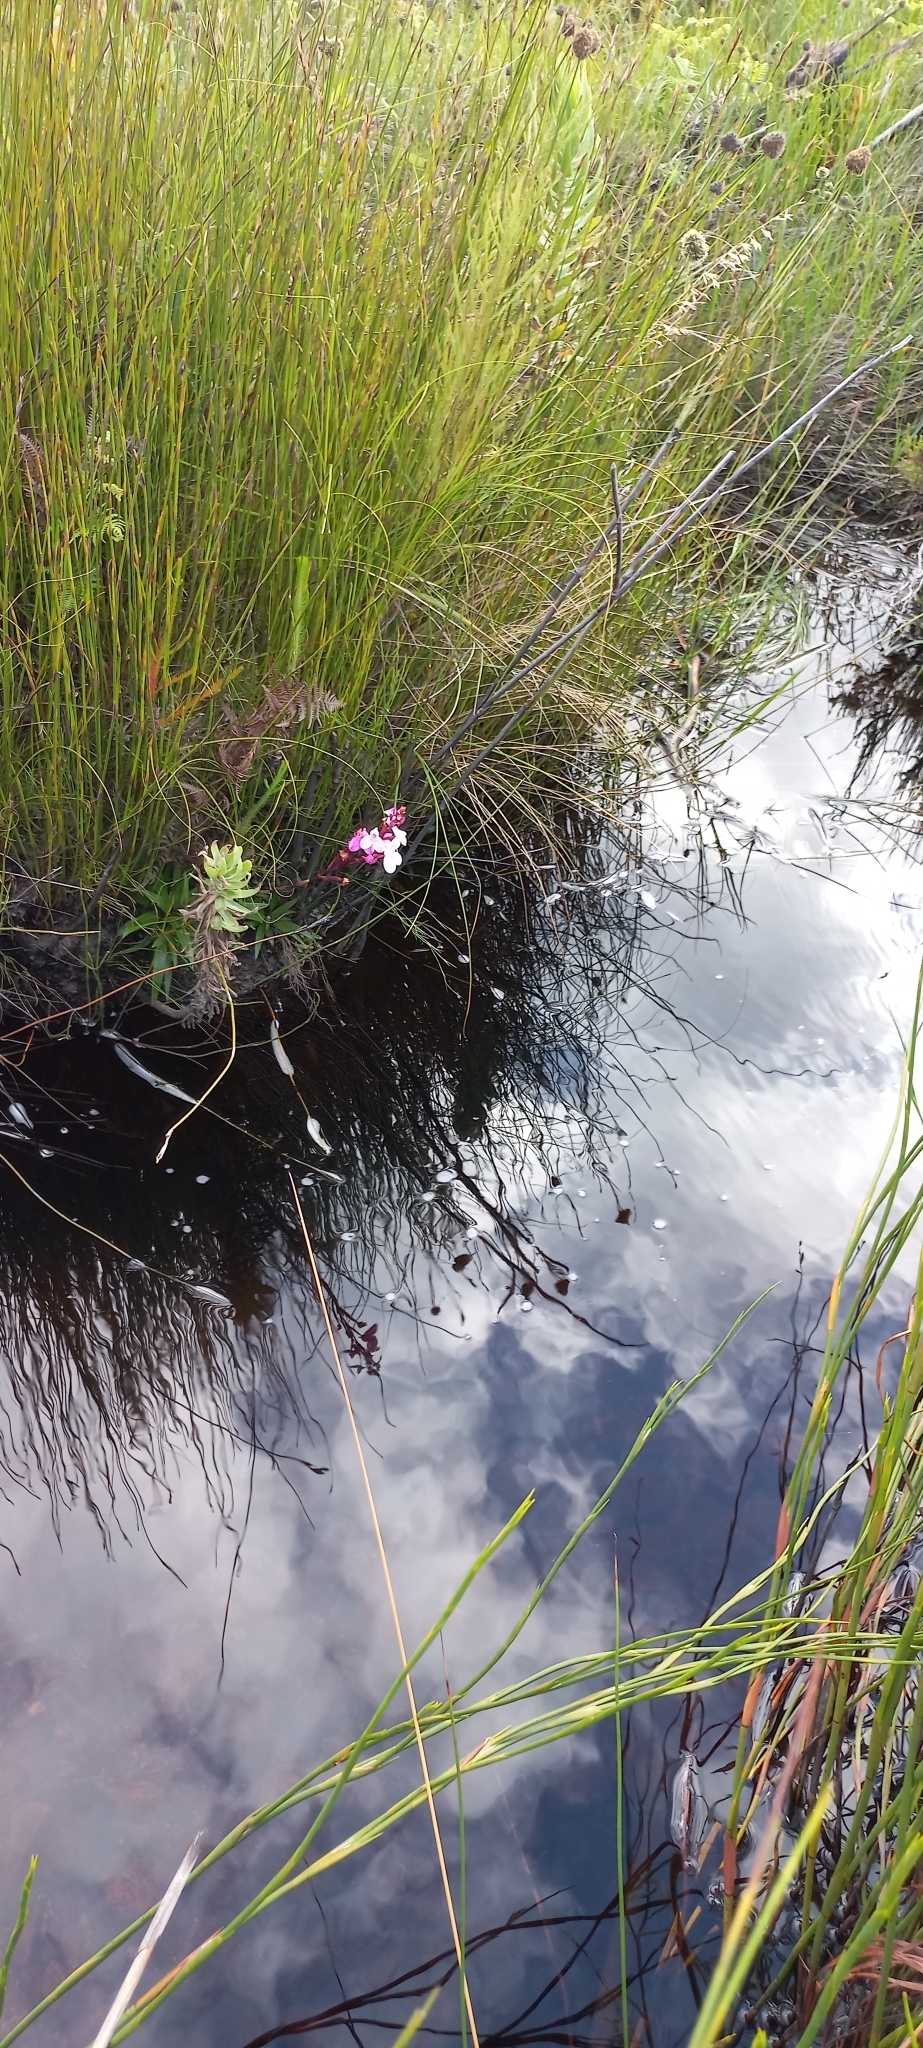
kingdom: Plantae
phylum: Tracheophyta
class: Liliopsida
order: Asparagales
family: Orchidaceae
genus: Disa
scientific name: Disa tripetaloides
